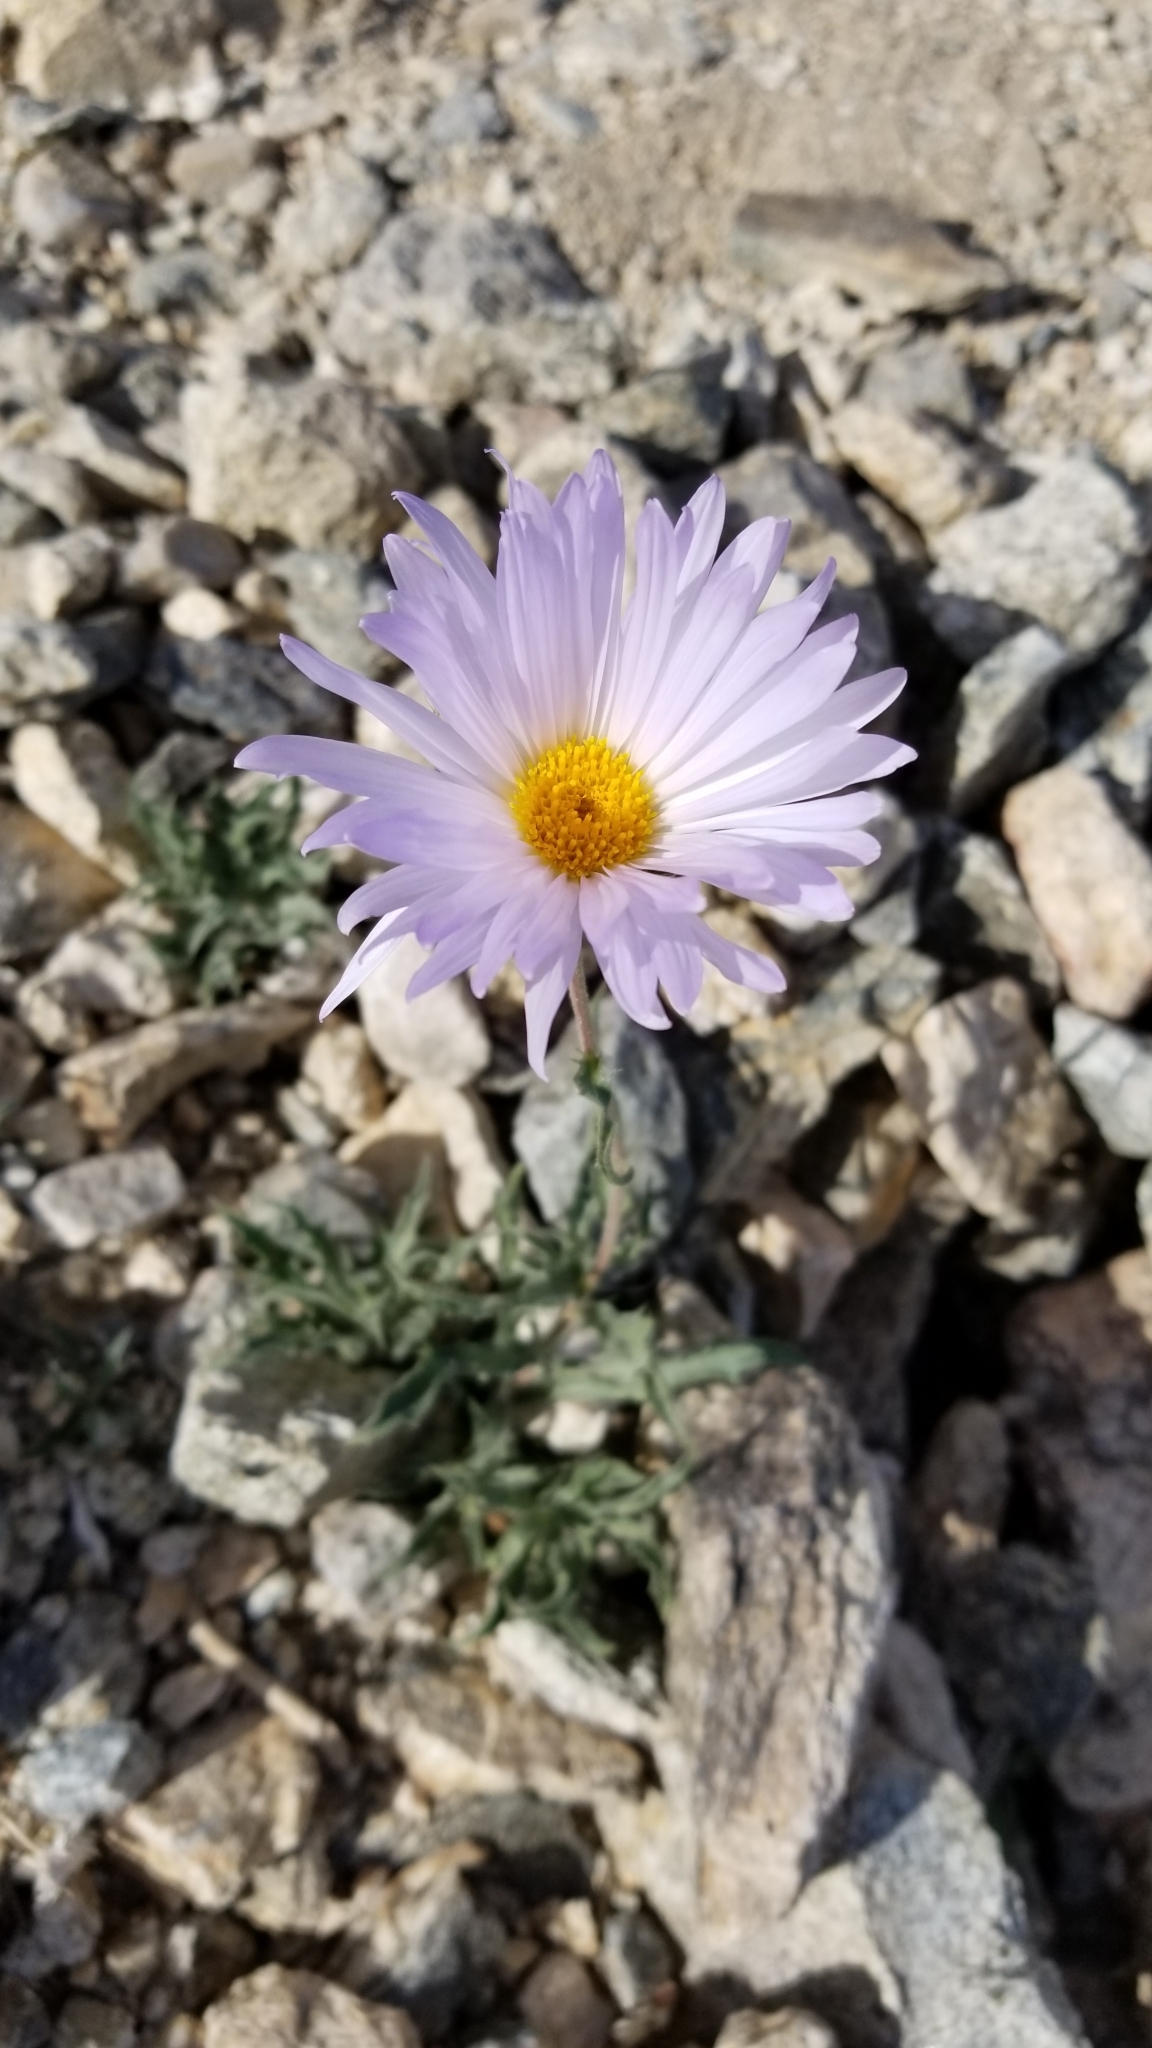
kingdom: Plantae
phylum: Tracheophyta
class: Magnoliopsida
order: Asterales
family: Asteraceae
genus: Xylorhiza
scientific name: Xylorhiza tortifolia
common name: Hurt-leaf woody-aster
